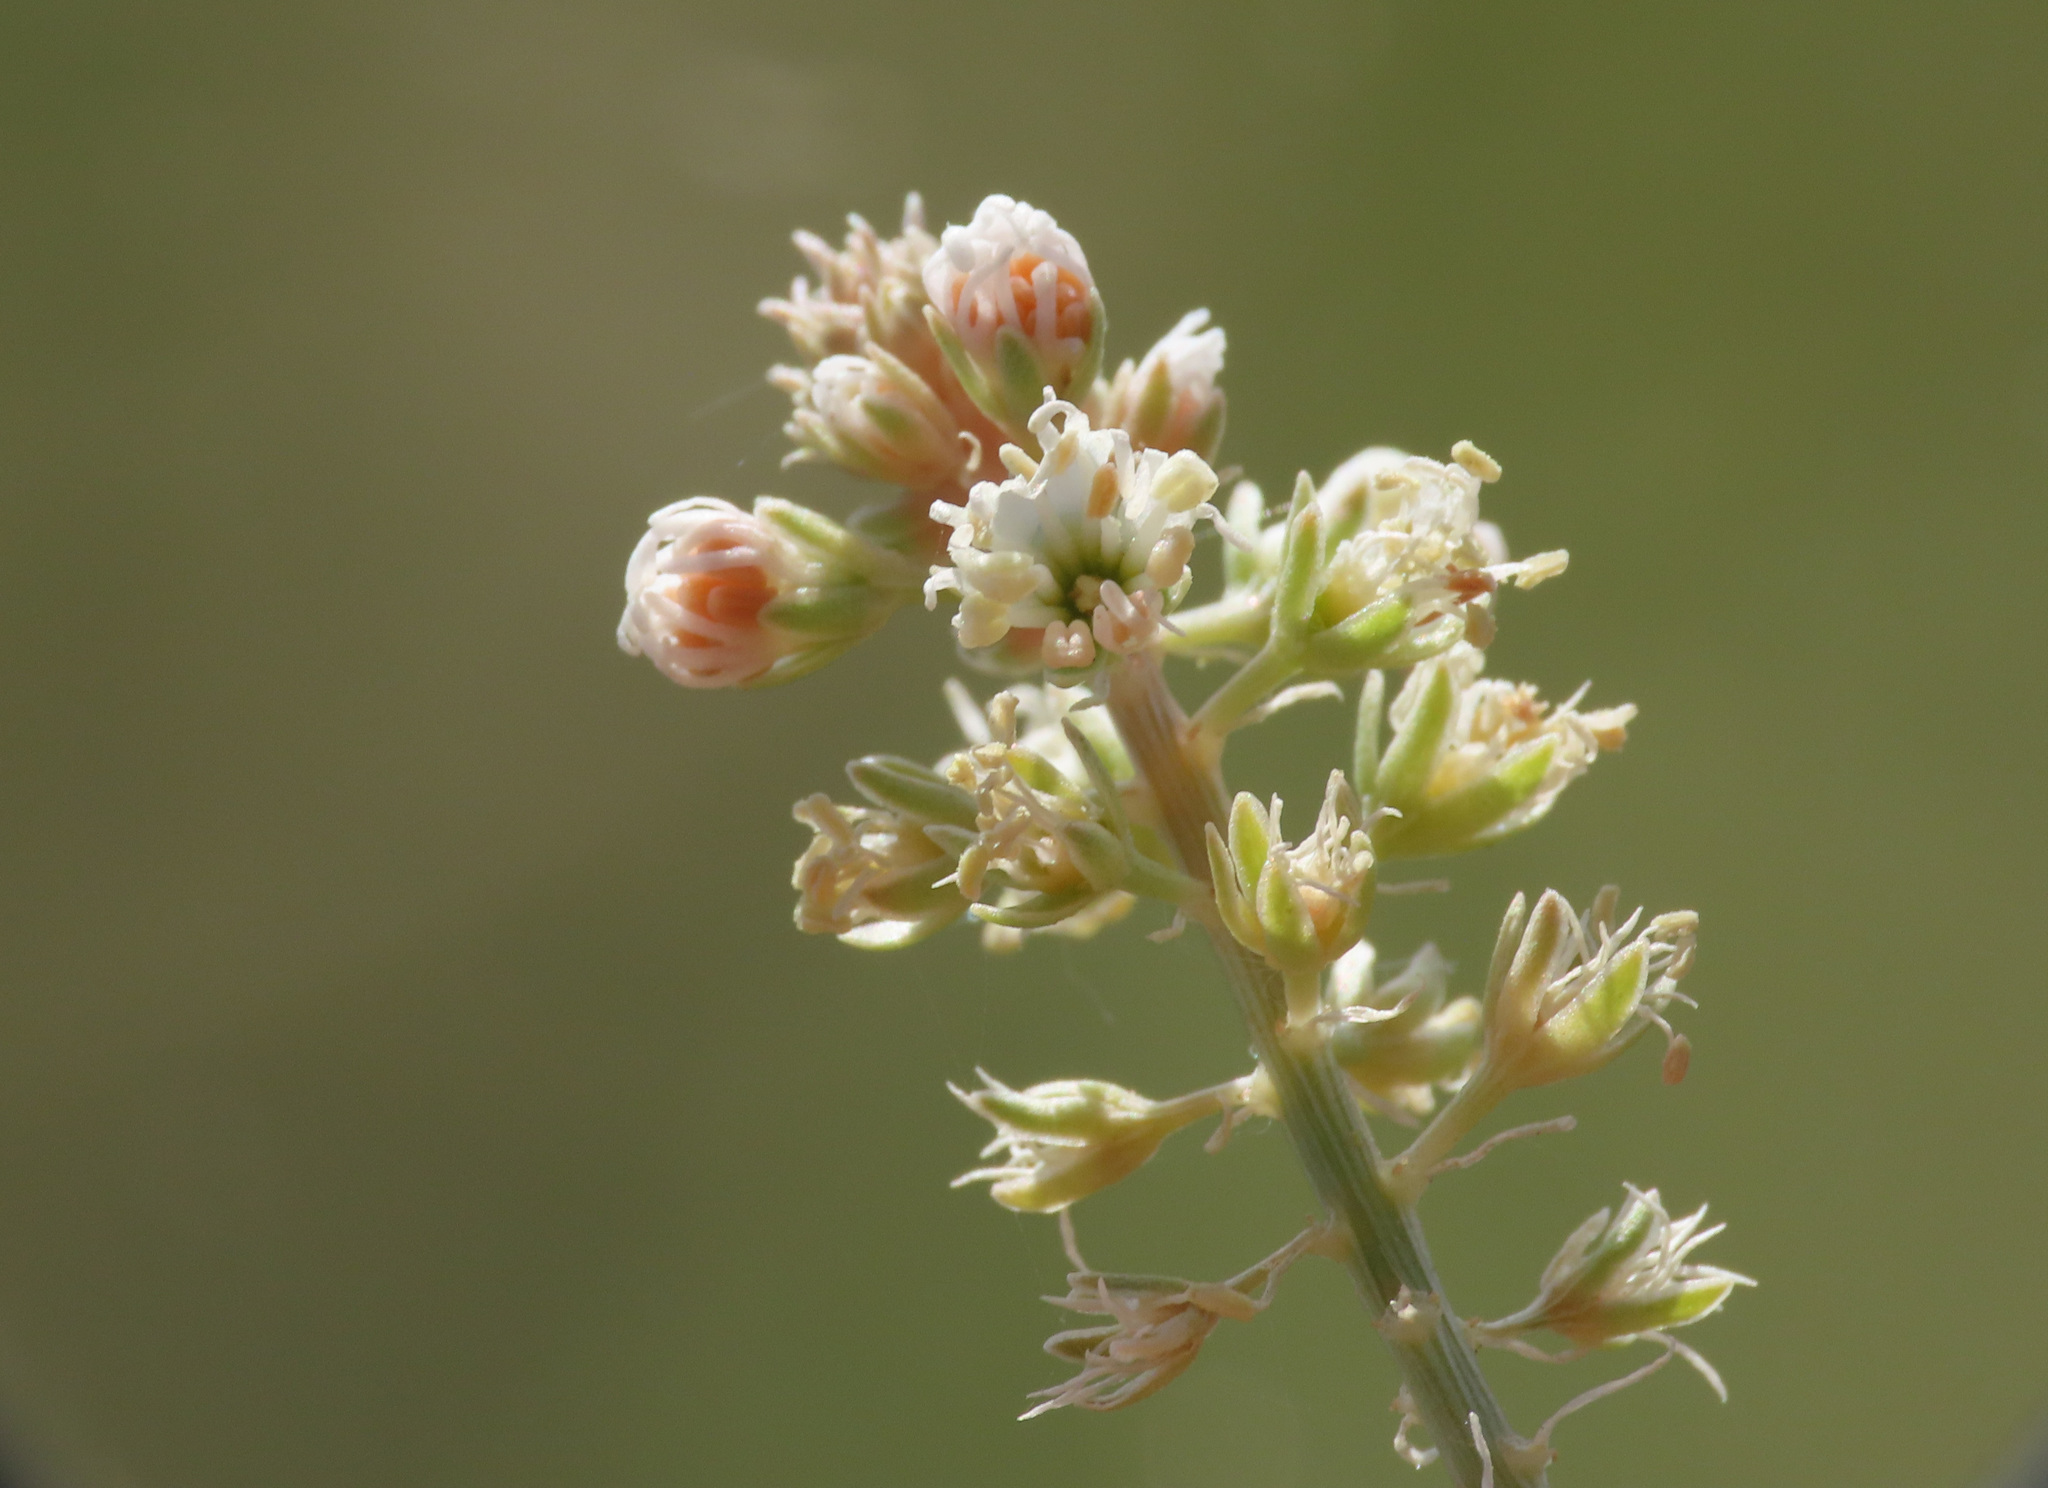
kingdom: Plantae
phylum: Tracheophyta
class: Magnoliopsida
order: Brassicales
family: Resedaceae
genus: Reseda
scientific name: Reseda alba
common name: White mignonette
